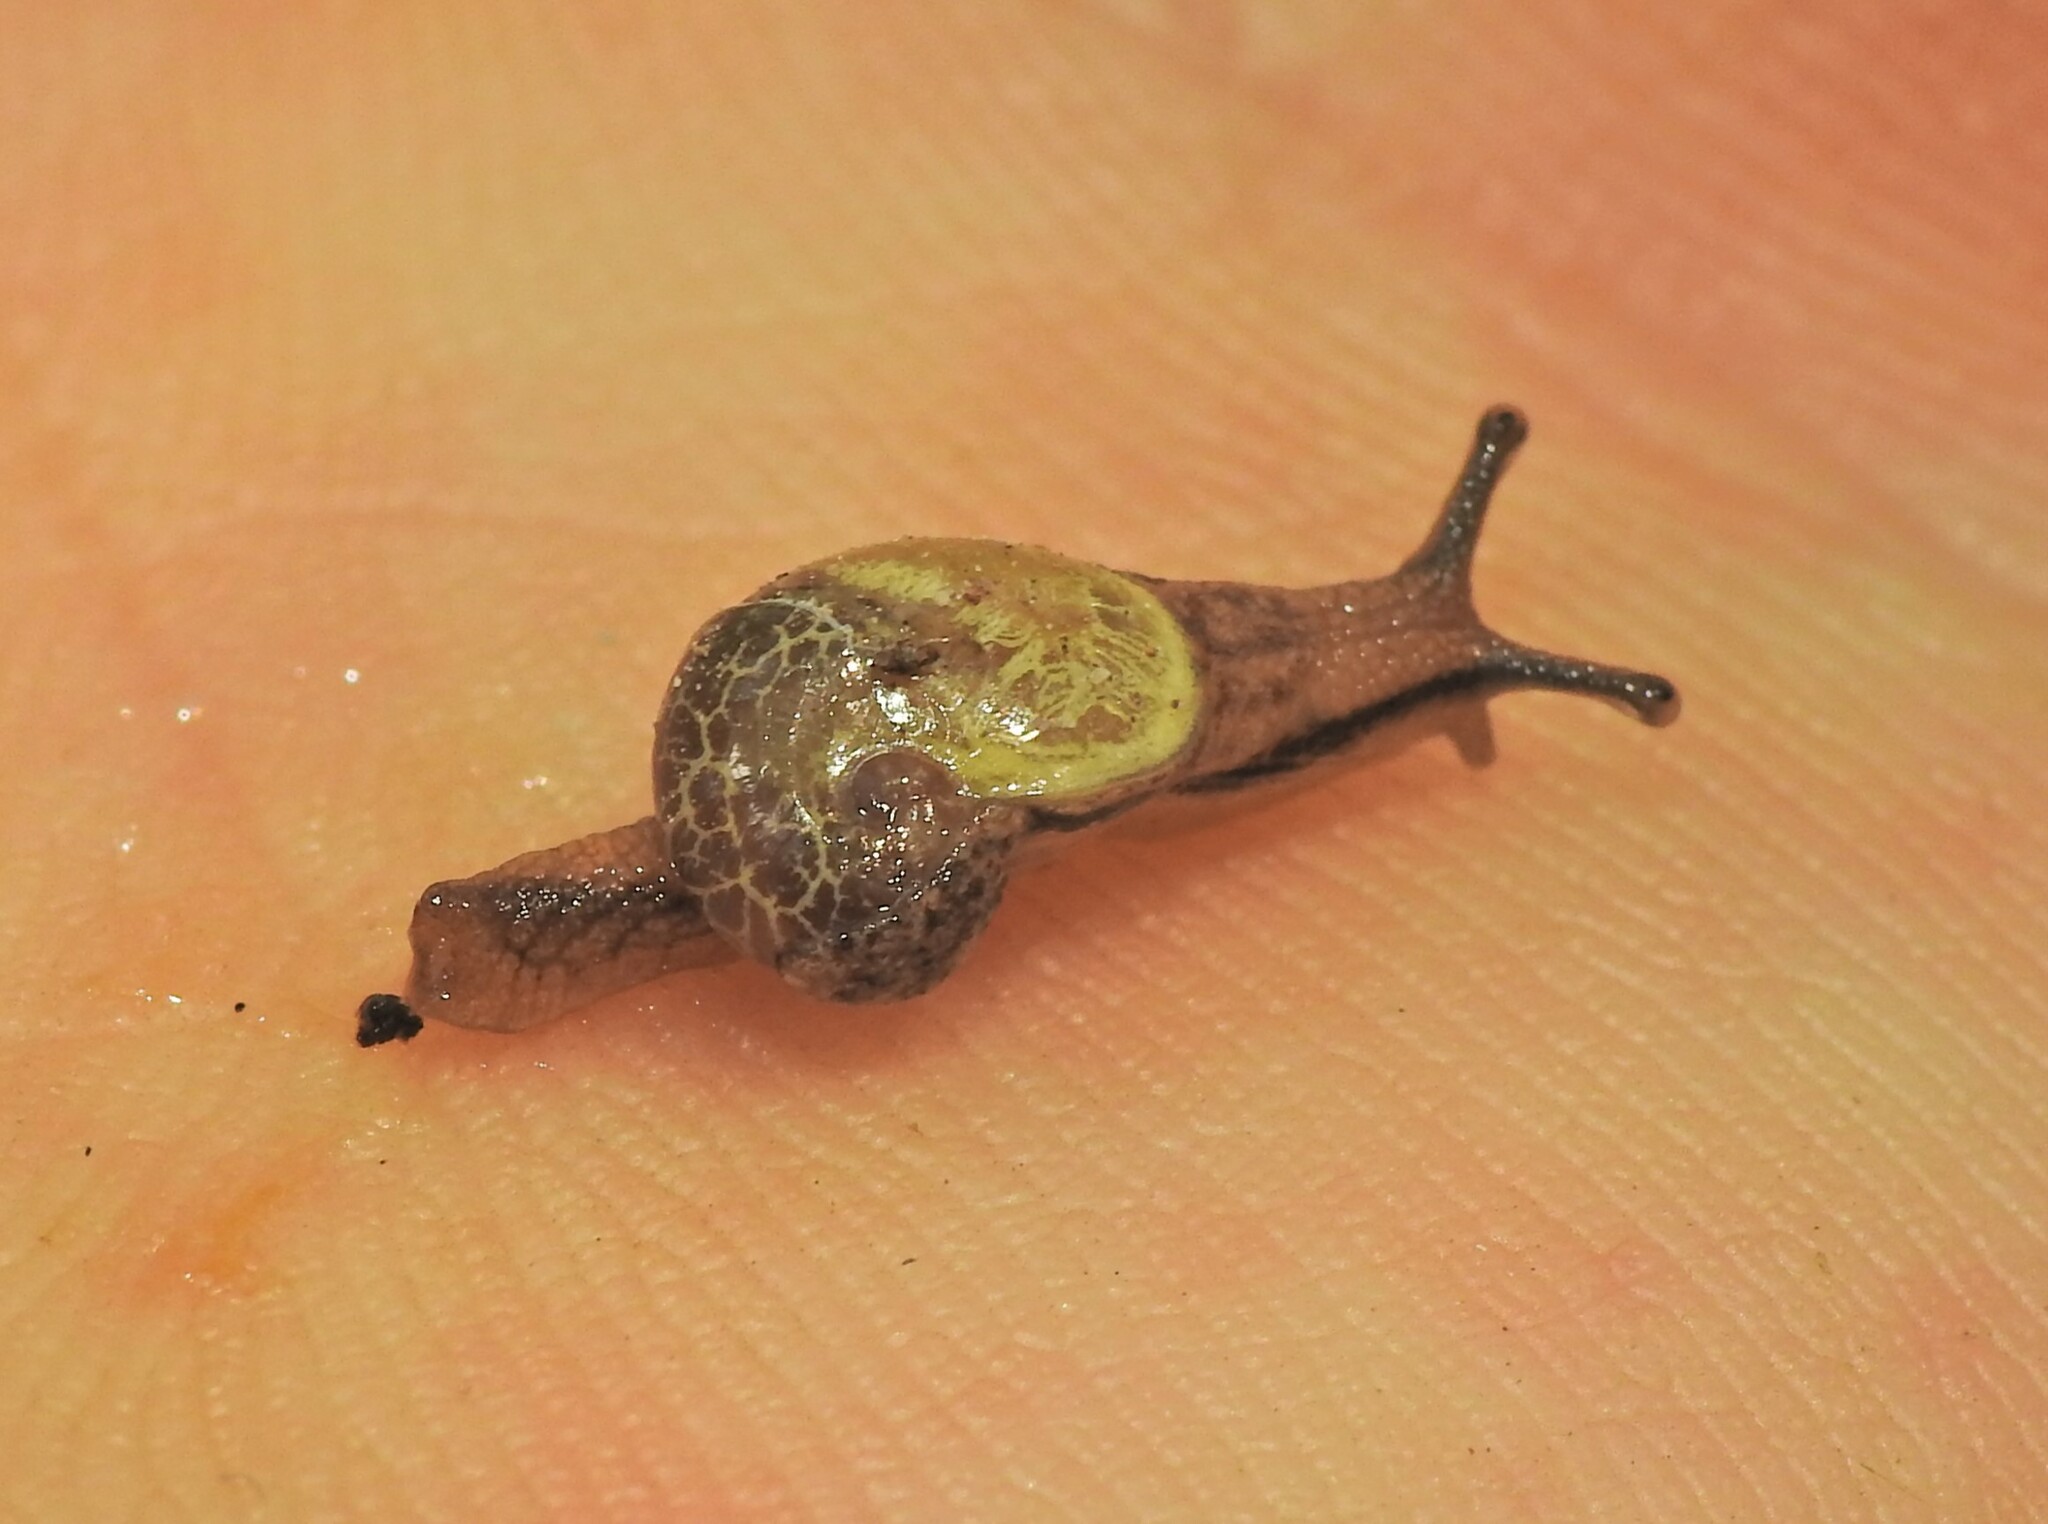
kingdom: Animalia
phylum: Mollusca
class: Gastropoda
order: Stylommatophora
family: Helicarionidae
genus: Ubiquitarion
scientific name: Ubiquitarion iridis
